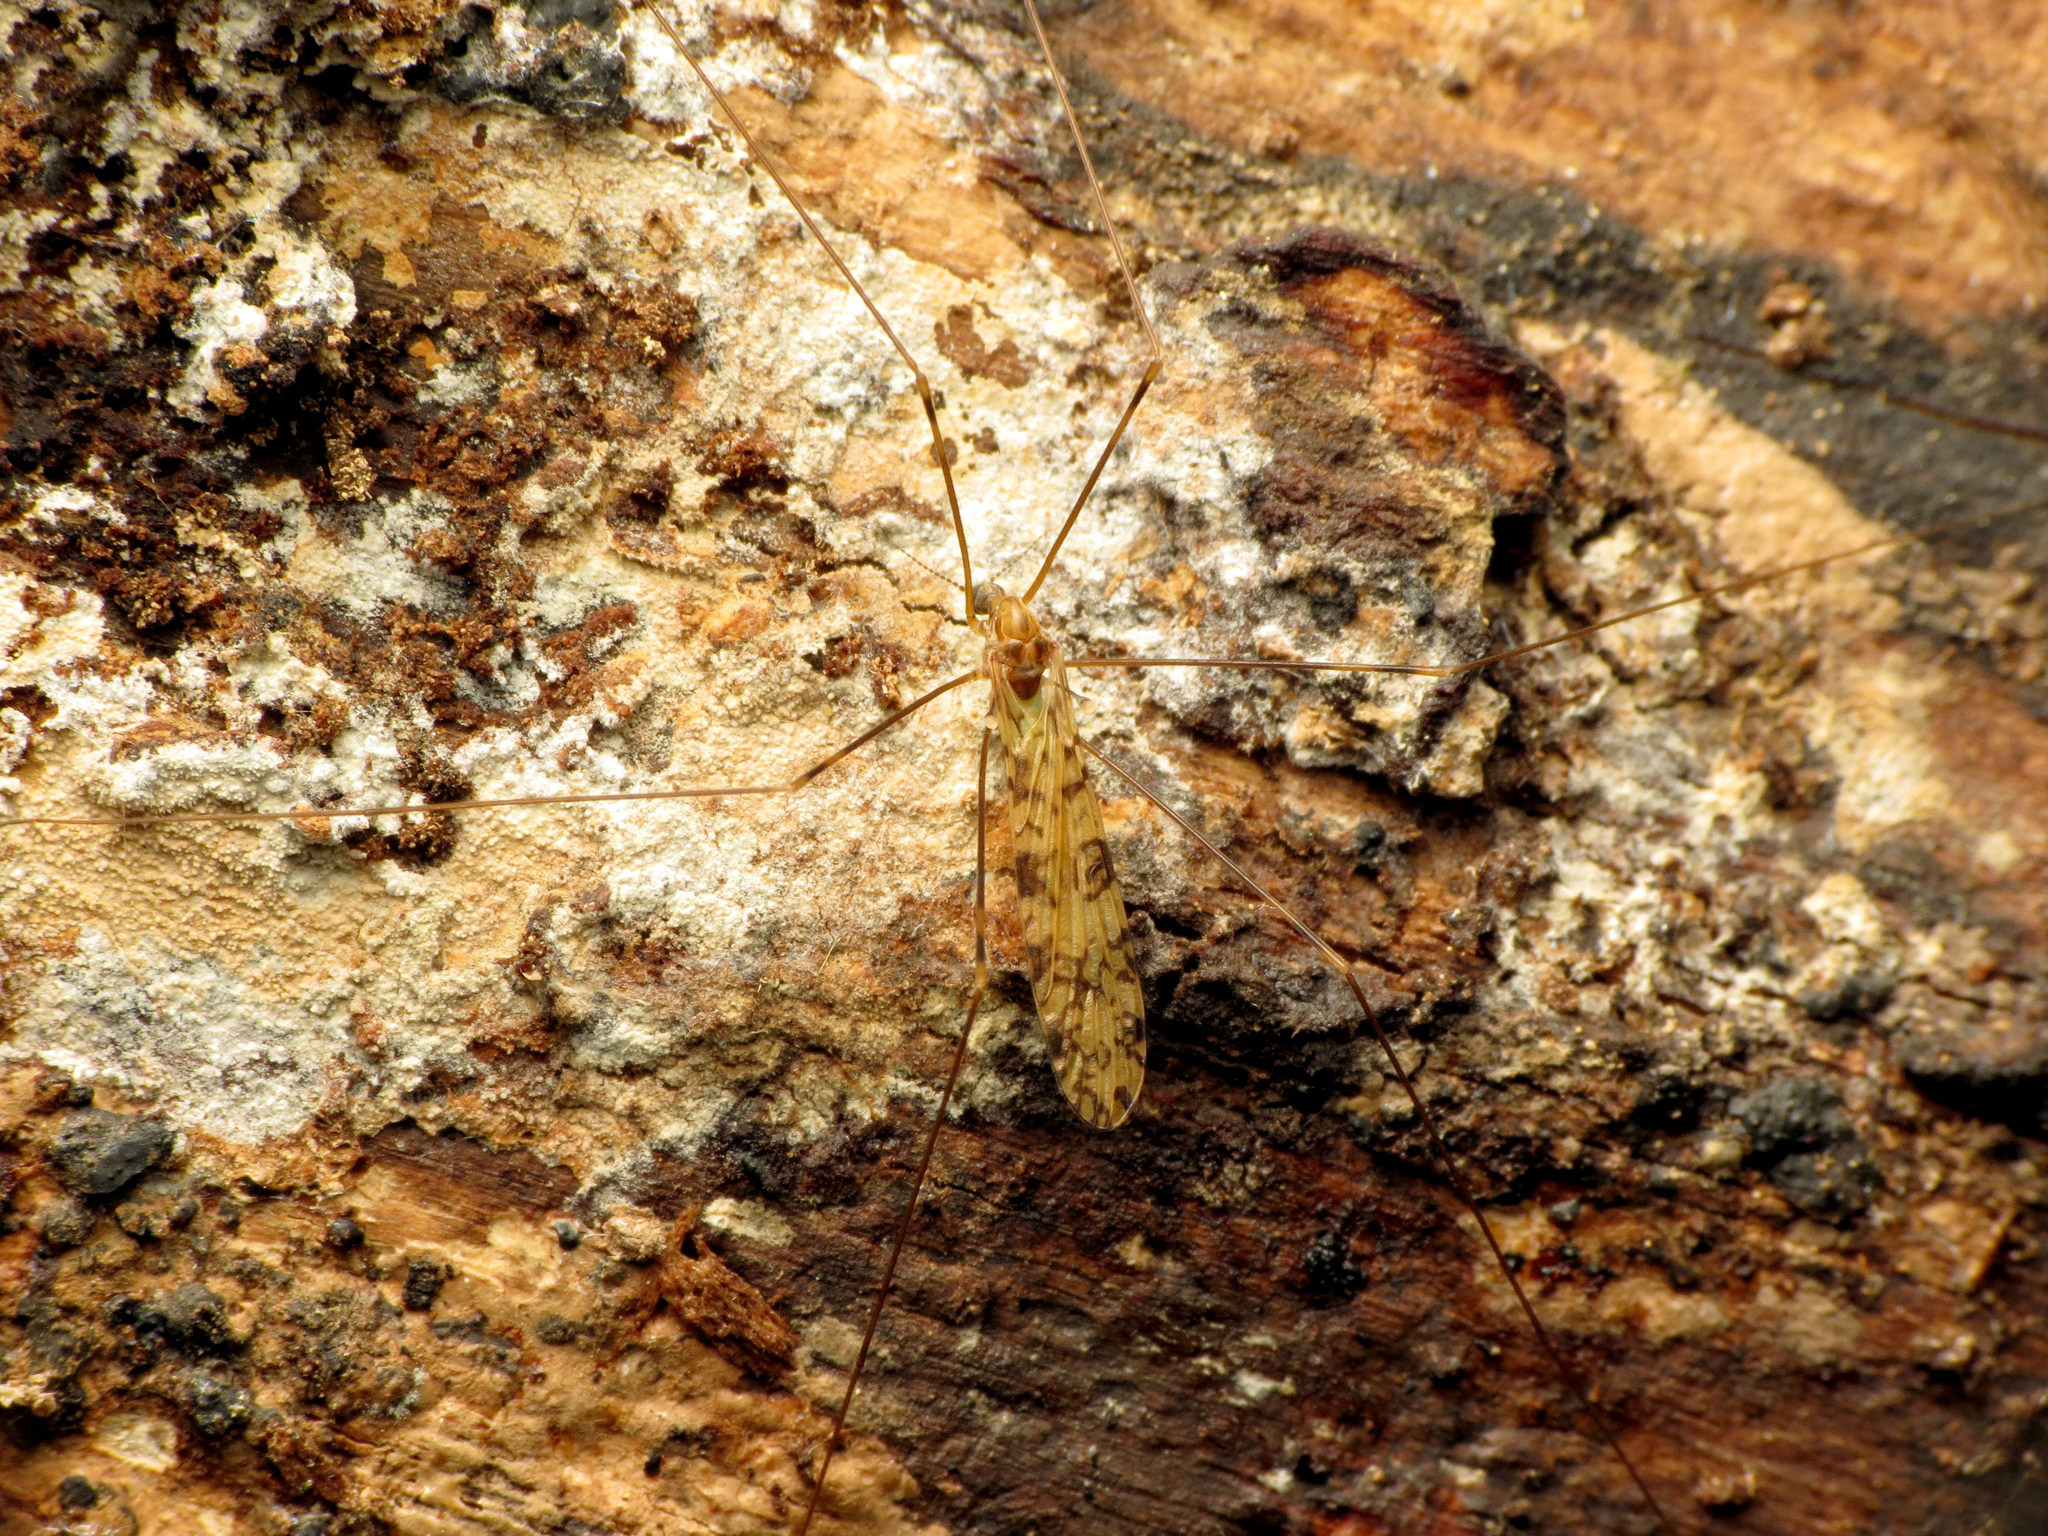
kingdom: Animalia
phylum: Arthropoda
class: Insecta
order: Diptera
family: Limoniidae
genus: Limonia
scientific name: Limonia annulata
